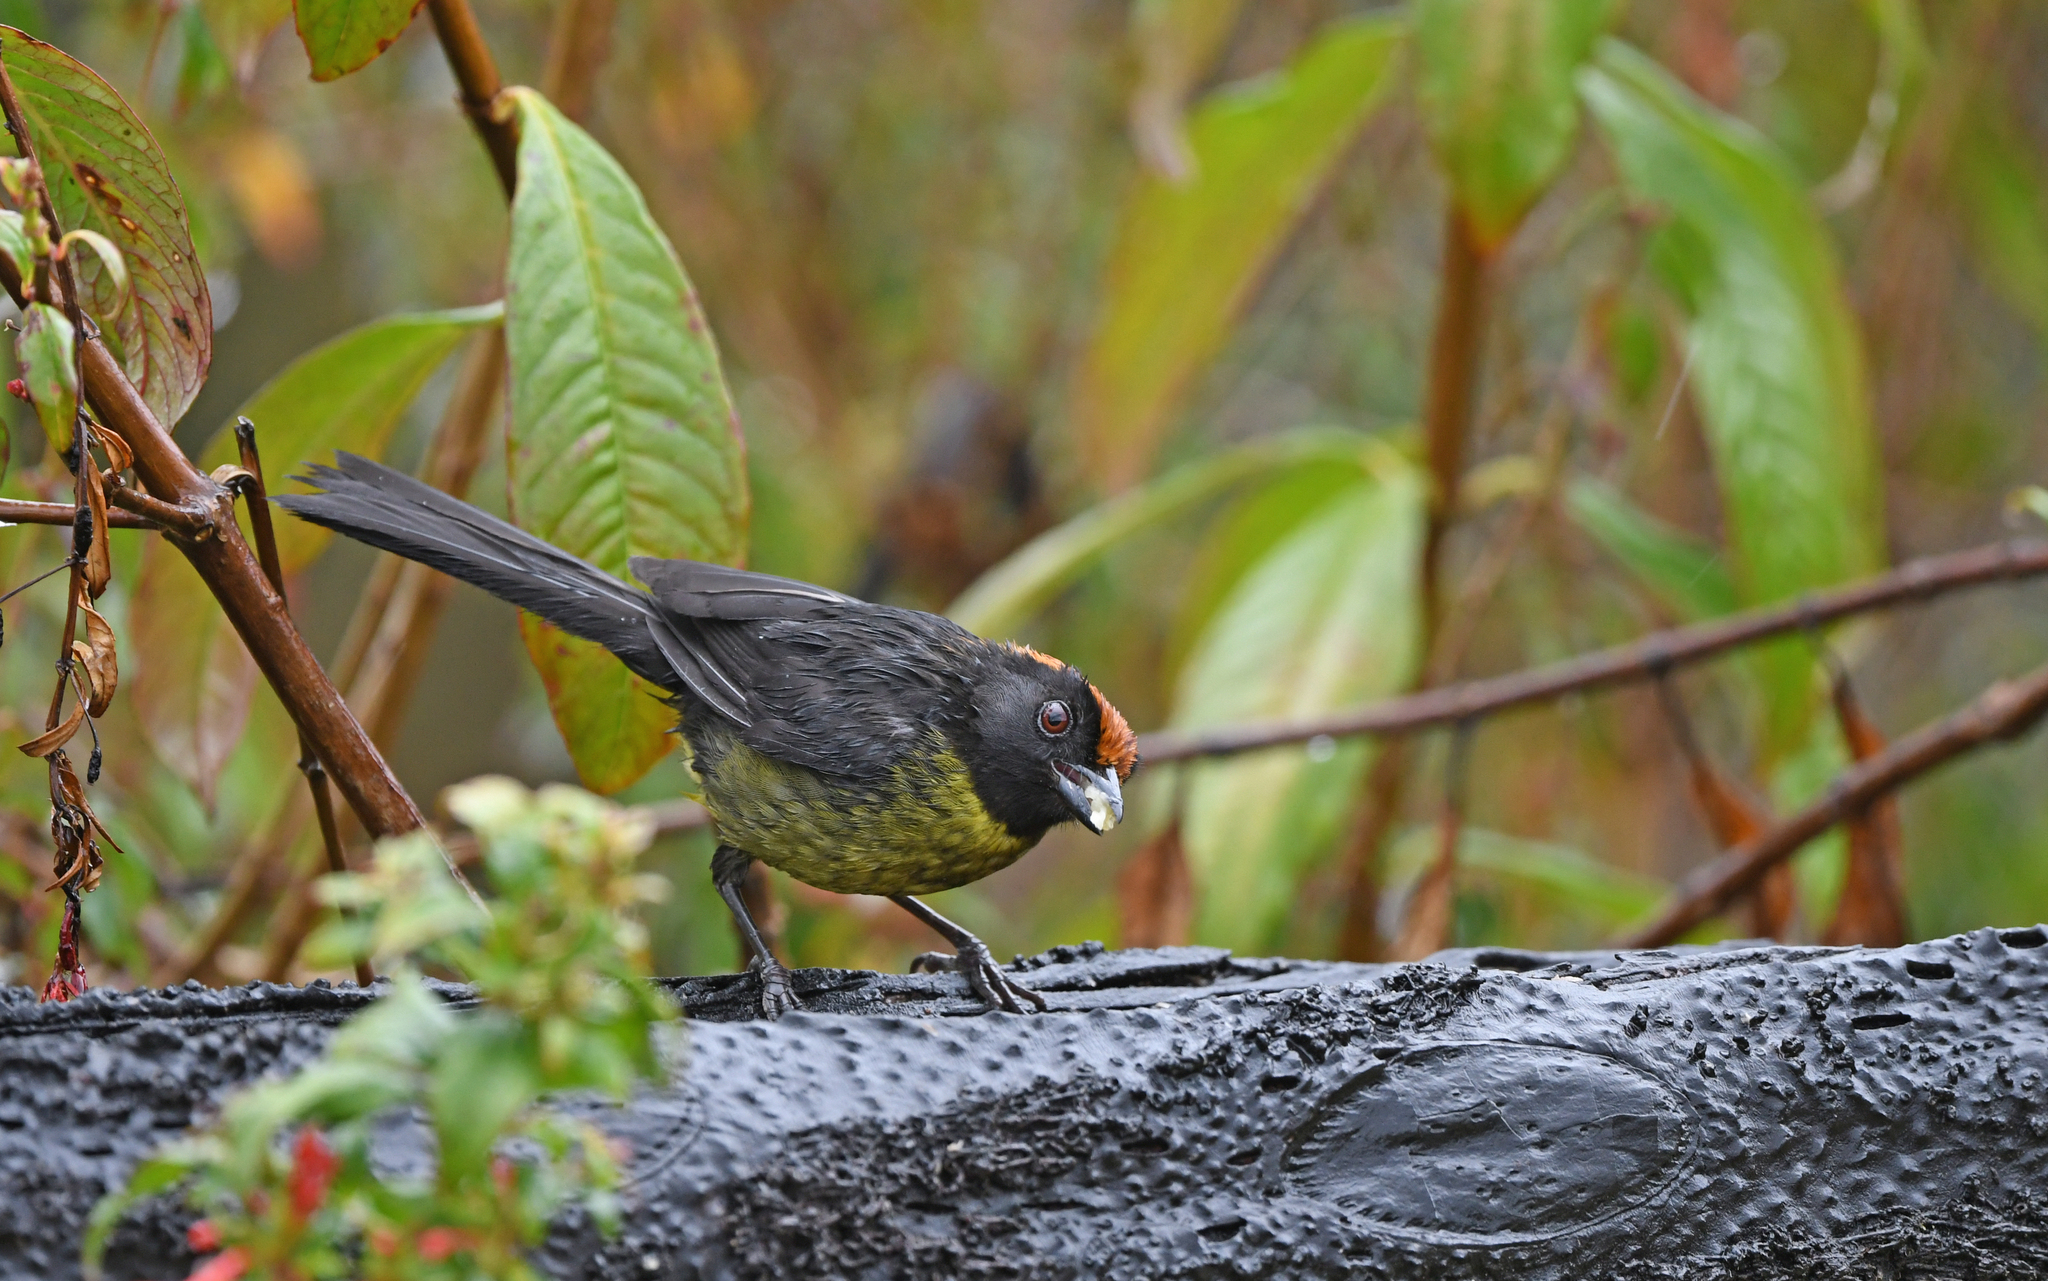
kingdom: Animalia
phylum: Chordata
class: Aves
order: Passeriformes
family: Passerellidae
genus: Atlapetes
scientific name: Atlapetes melanolaemus
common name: Grey-eared brush finch
